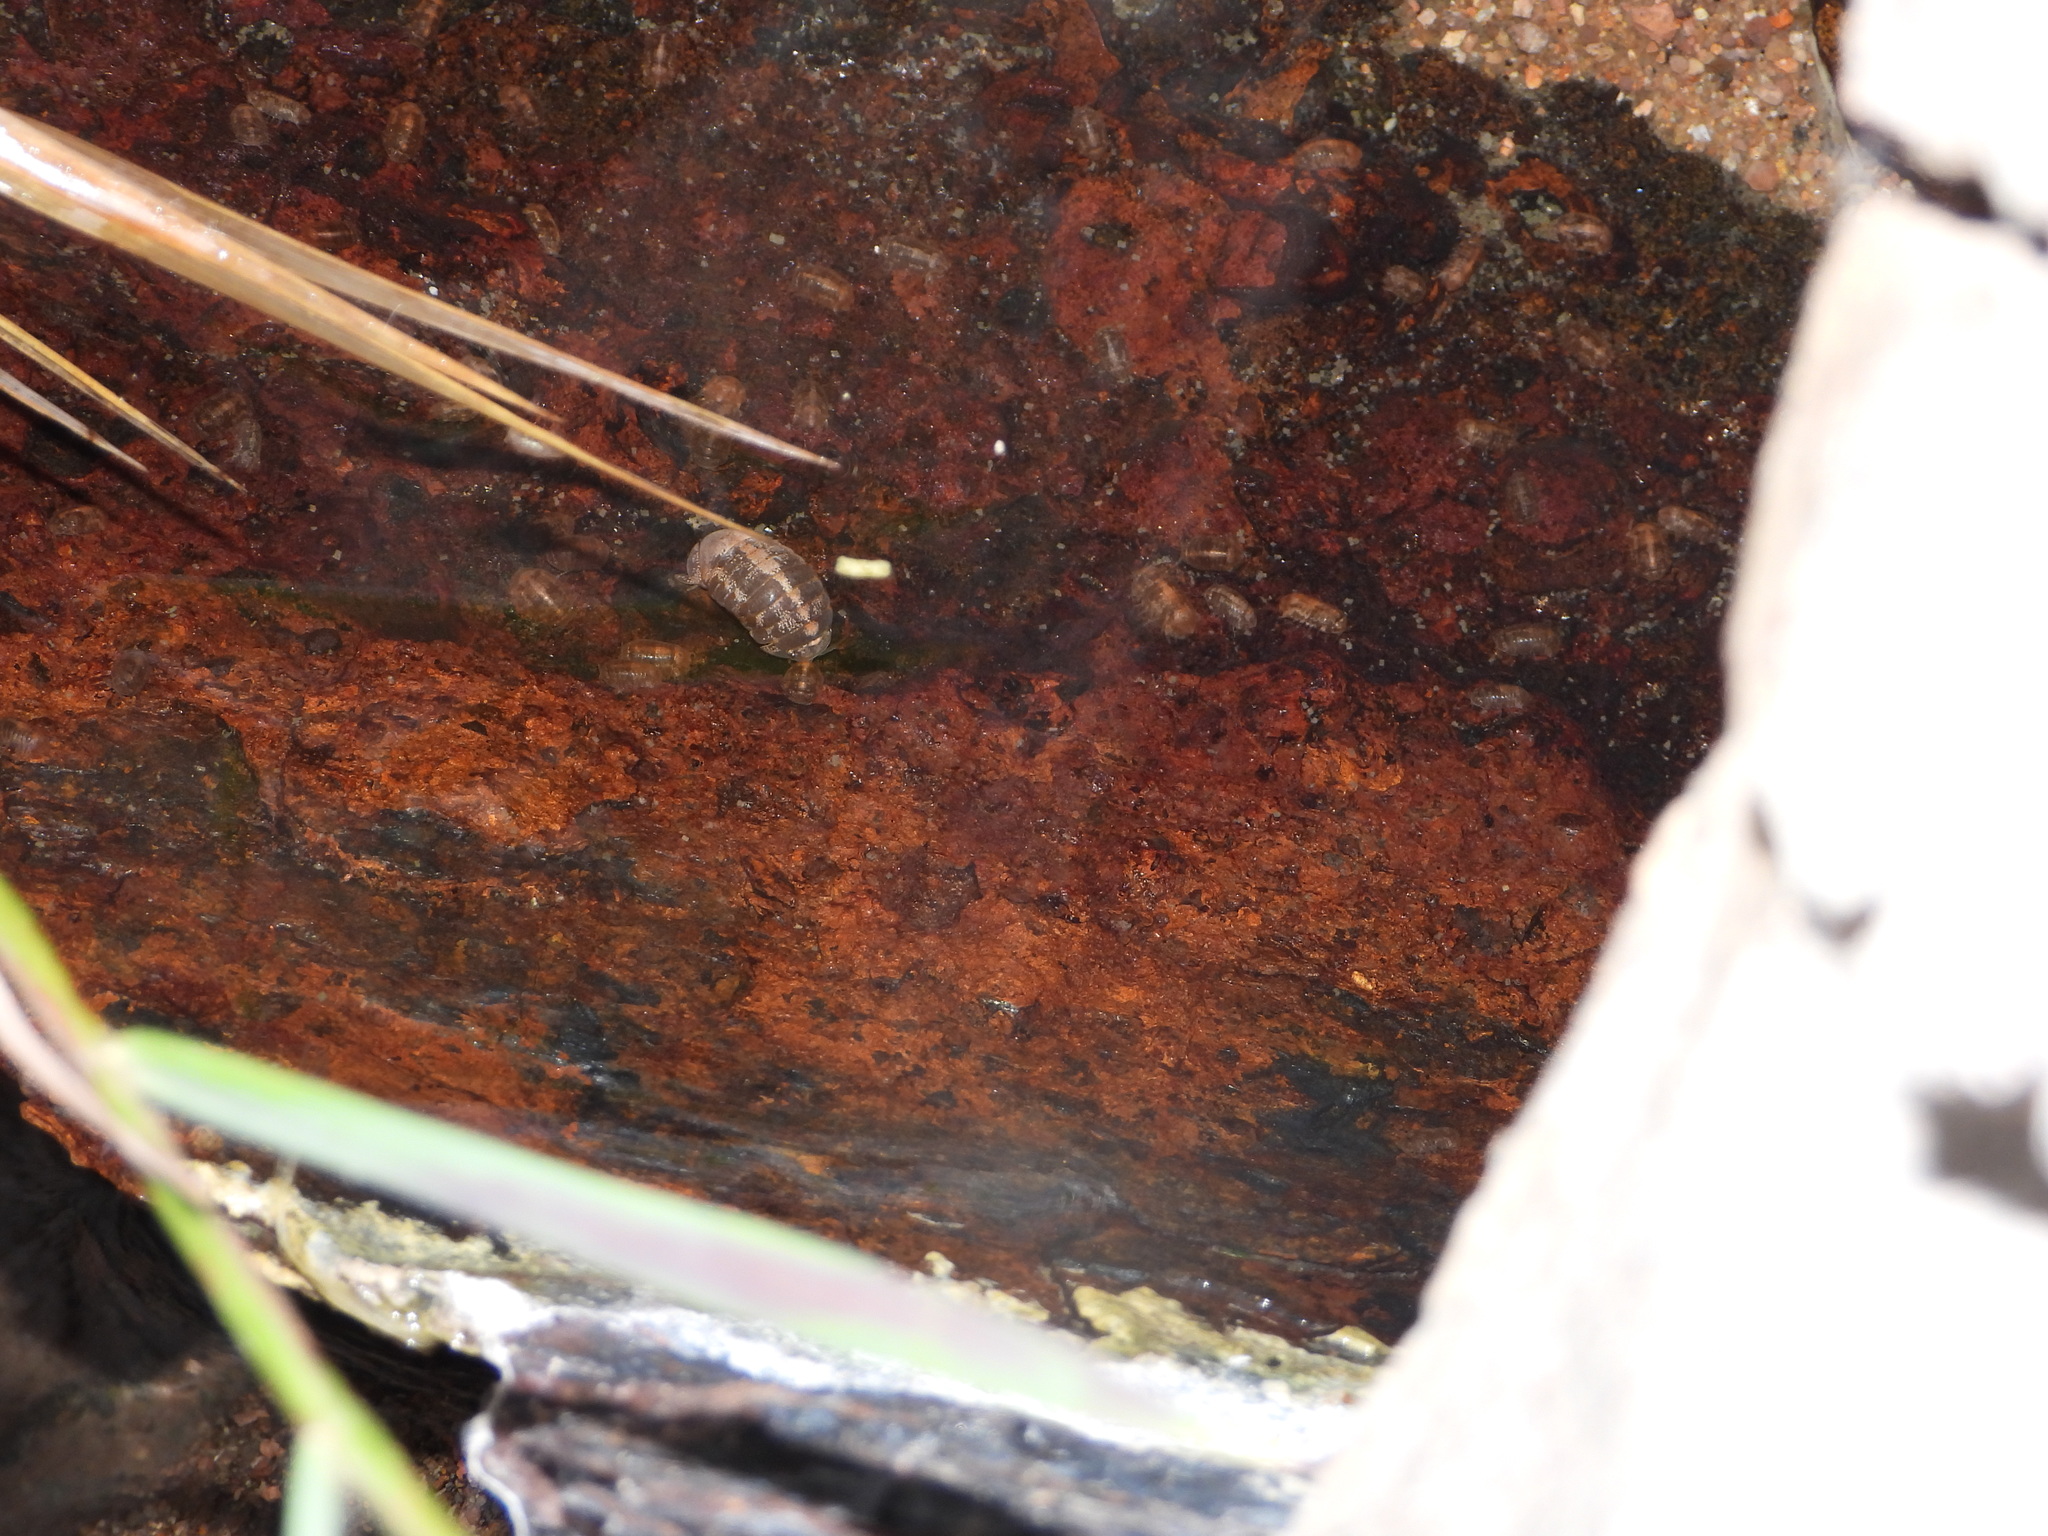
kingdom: Animalia
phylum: Arthropoda
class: Malacostraca
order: Isopoda
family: Sphaeromatidae
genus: Thermosphaeroma
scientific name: Thermosphaeroma thermophilum
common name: Socorro isopod
